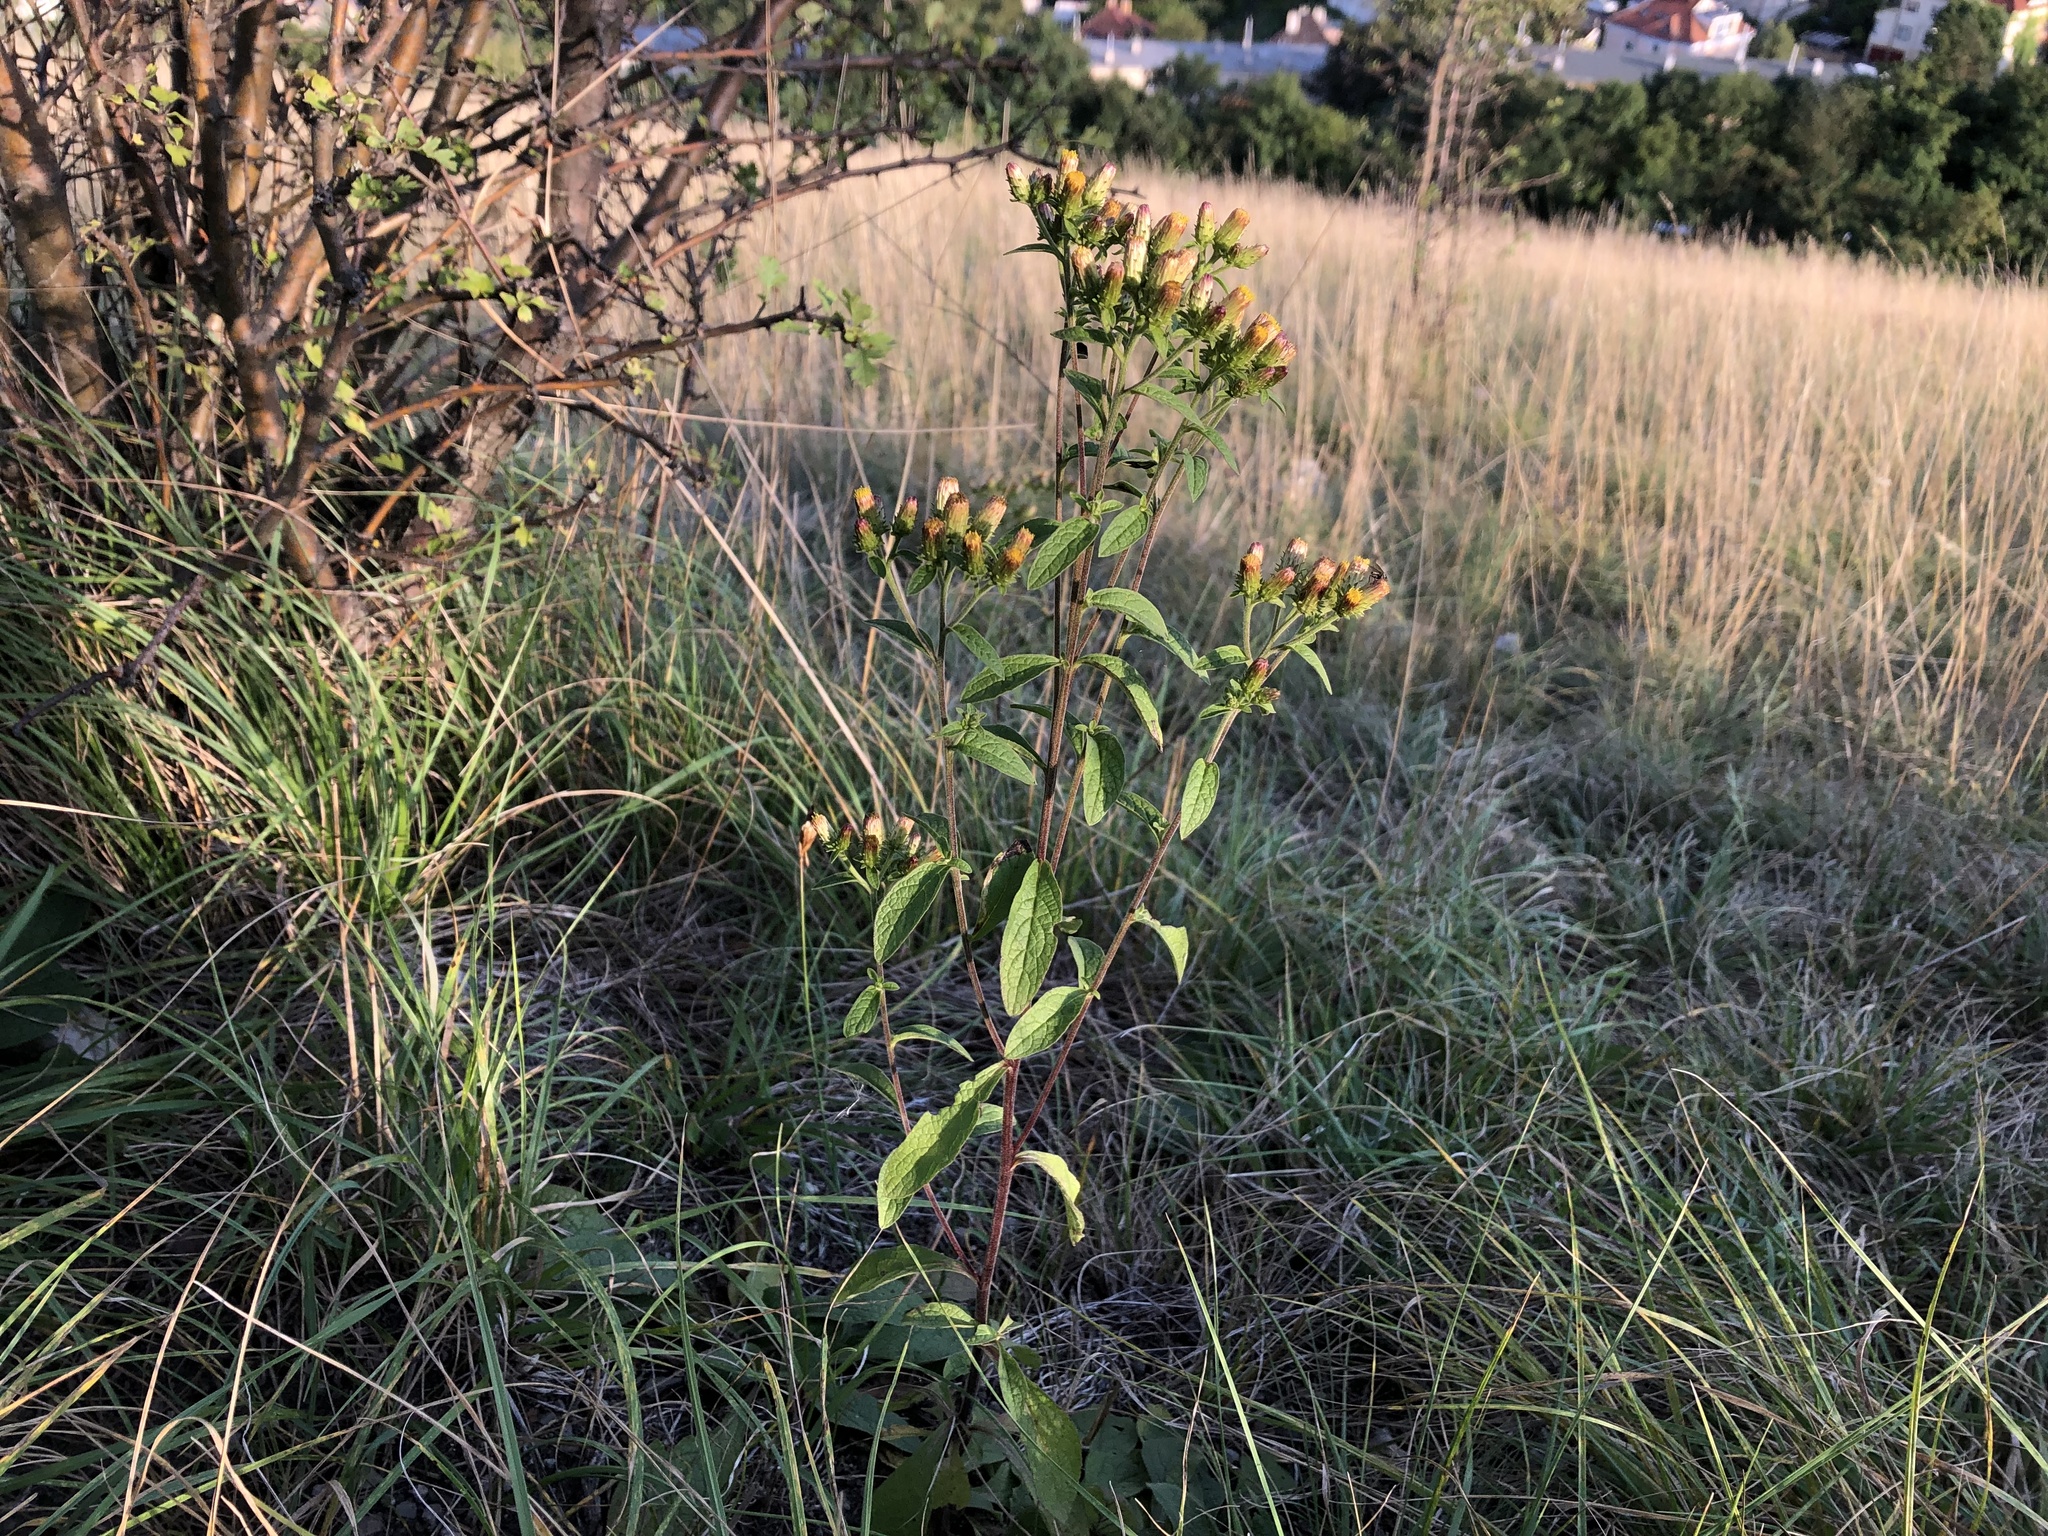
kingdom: Plantae
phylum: Tracheophyta
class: Magnoliopsida
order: Asterales
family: Asteraceae
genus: Pentanema
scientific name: Pentanema squarrosum
